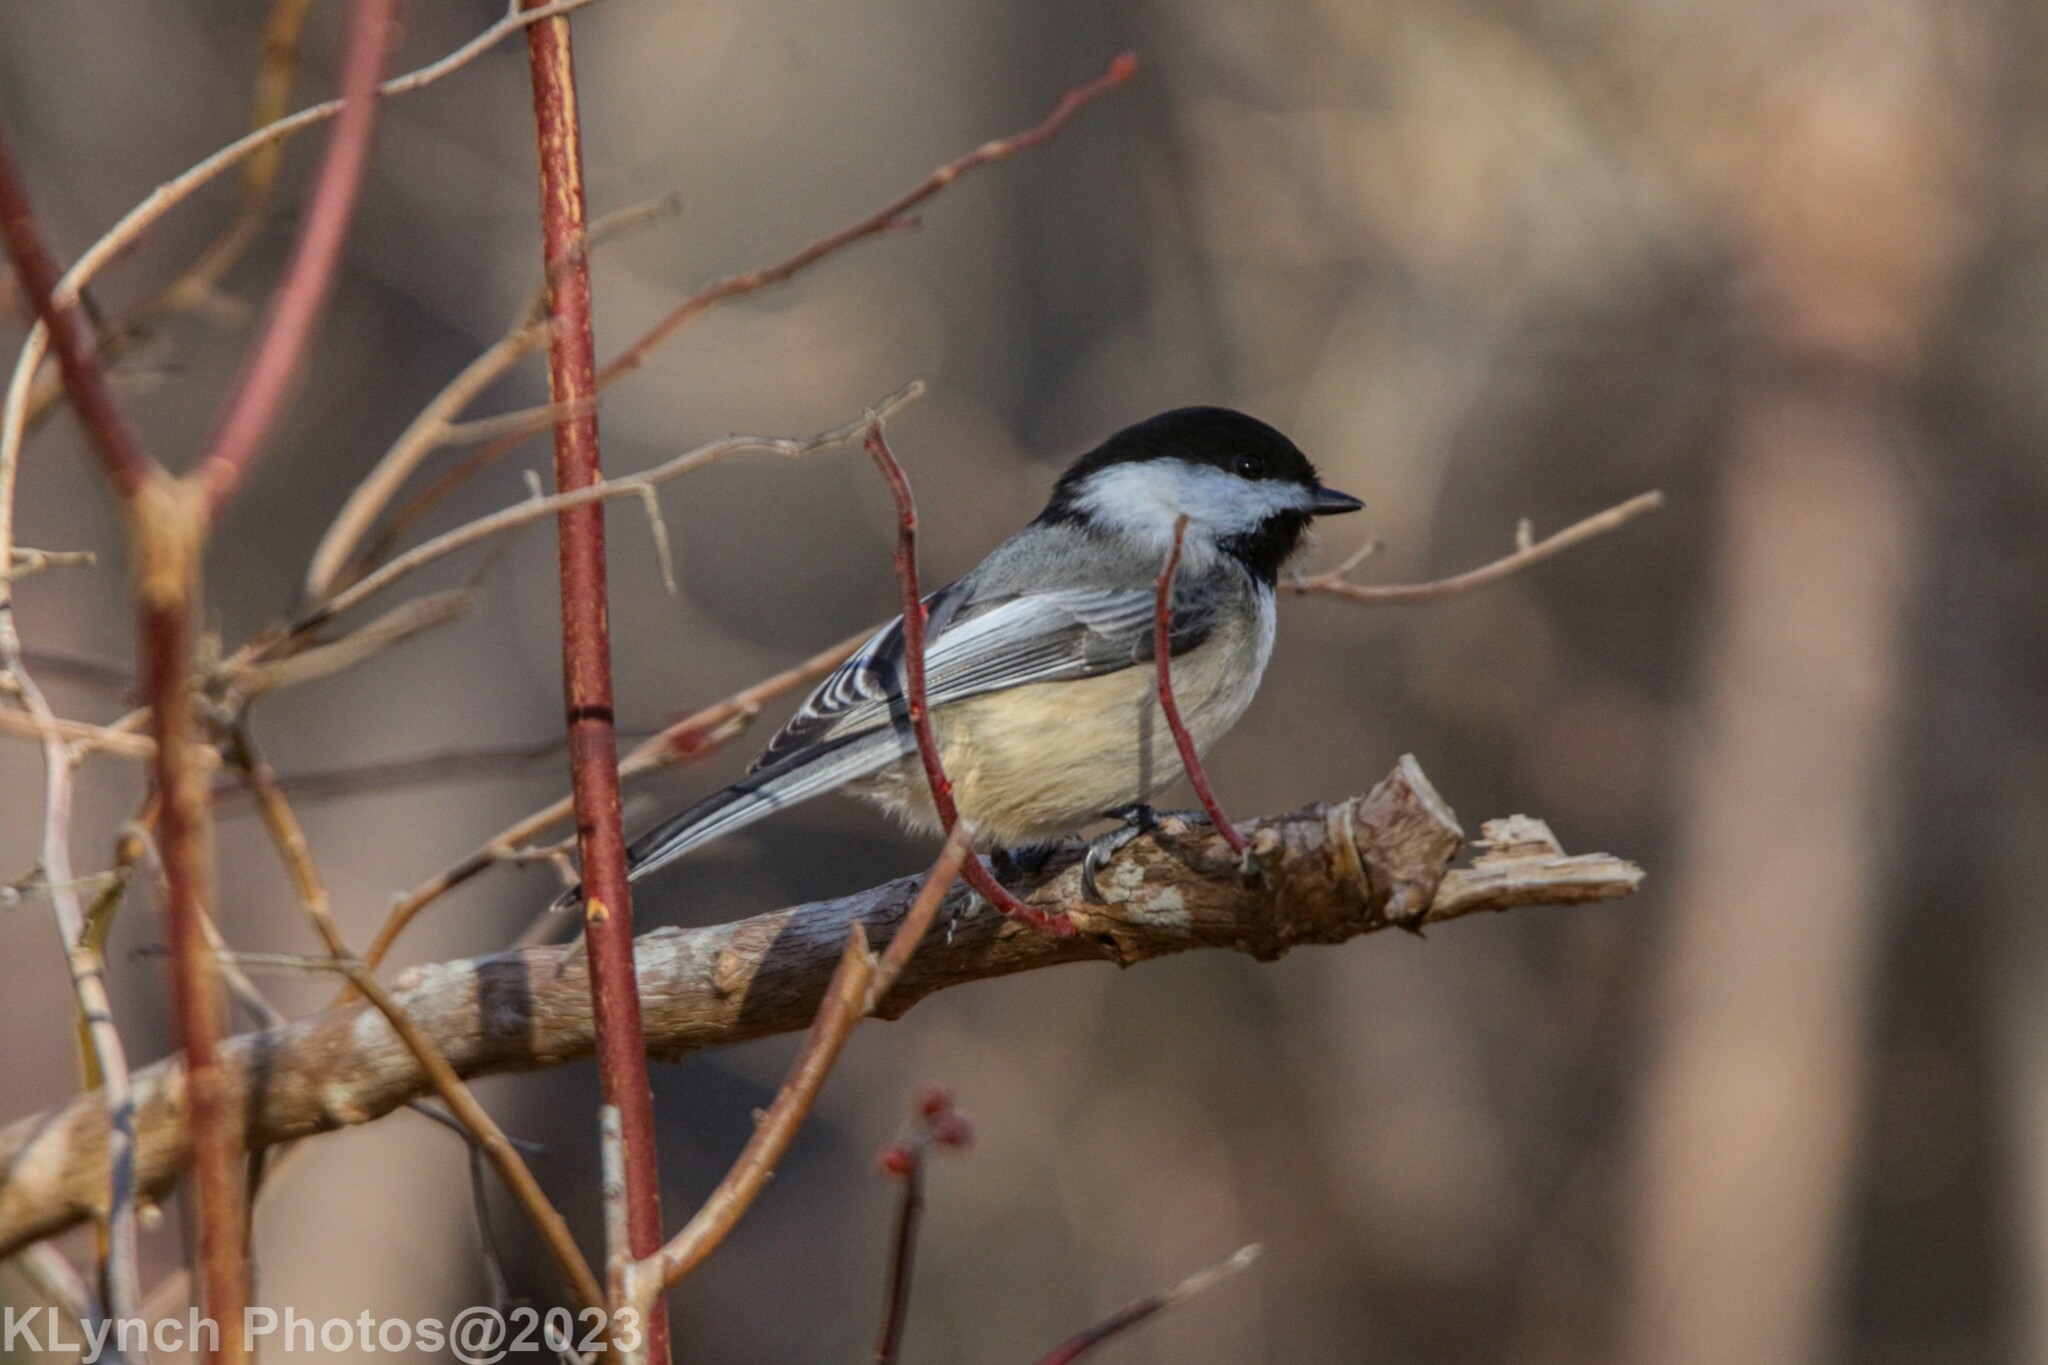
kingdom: Animalia
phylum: Chordata
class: Aves
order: Passeriformes
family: Paridae
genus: Poecile
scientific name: Poecile atricapillus
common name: Black-capped chickadee
